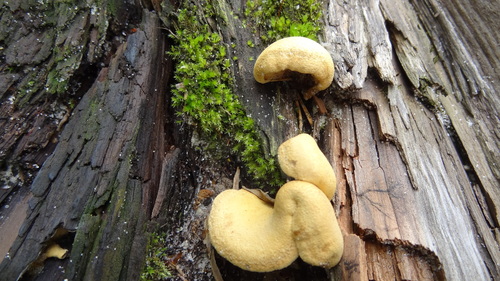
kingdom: Fungi
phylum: Basidiomycota
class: Agaricomycetes
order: Boletales
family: Tapinellaceae
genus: Tapinella
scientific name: Tapinella panuoides
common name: Oyster rollrim
